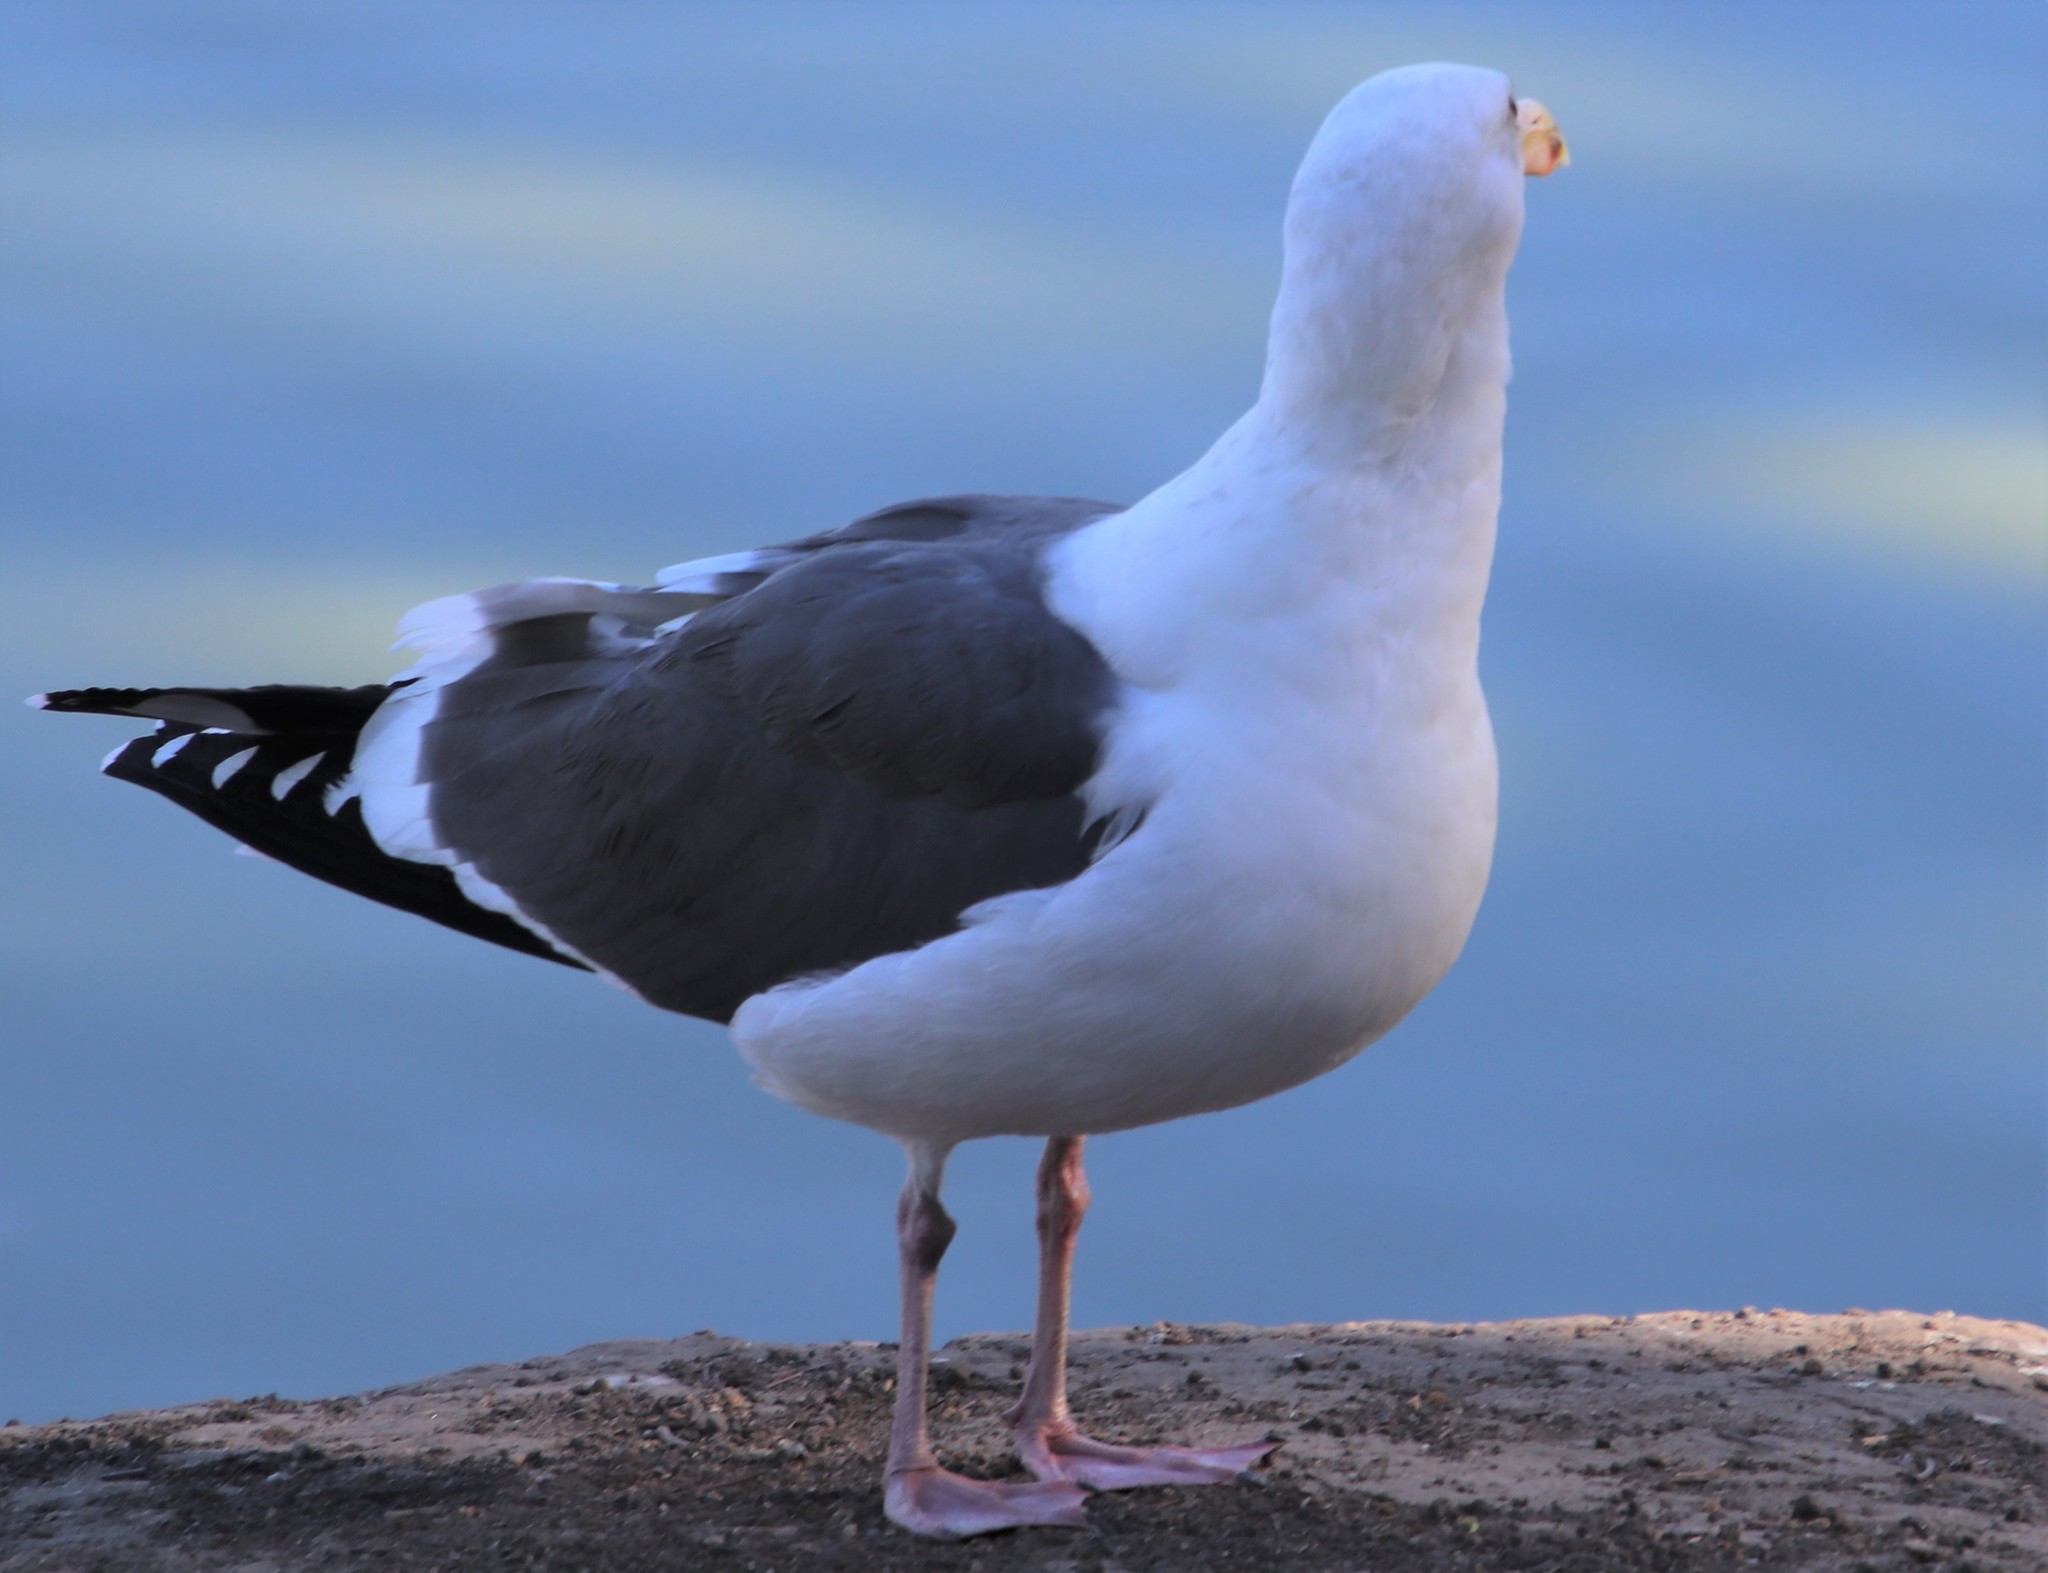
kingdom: Animalia
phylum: Chordata
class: Aves
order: Charadriiformes
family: Laridae
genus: Larus
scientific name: Larus occidentalis
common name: Western gull
